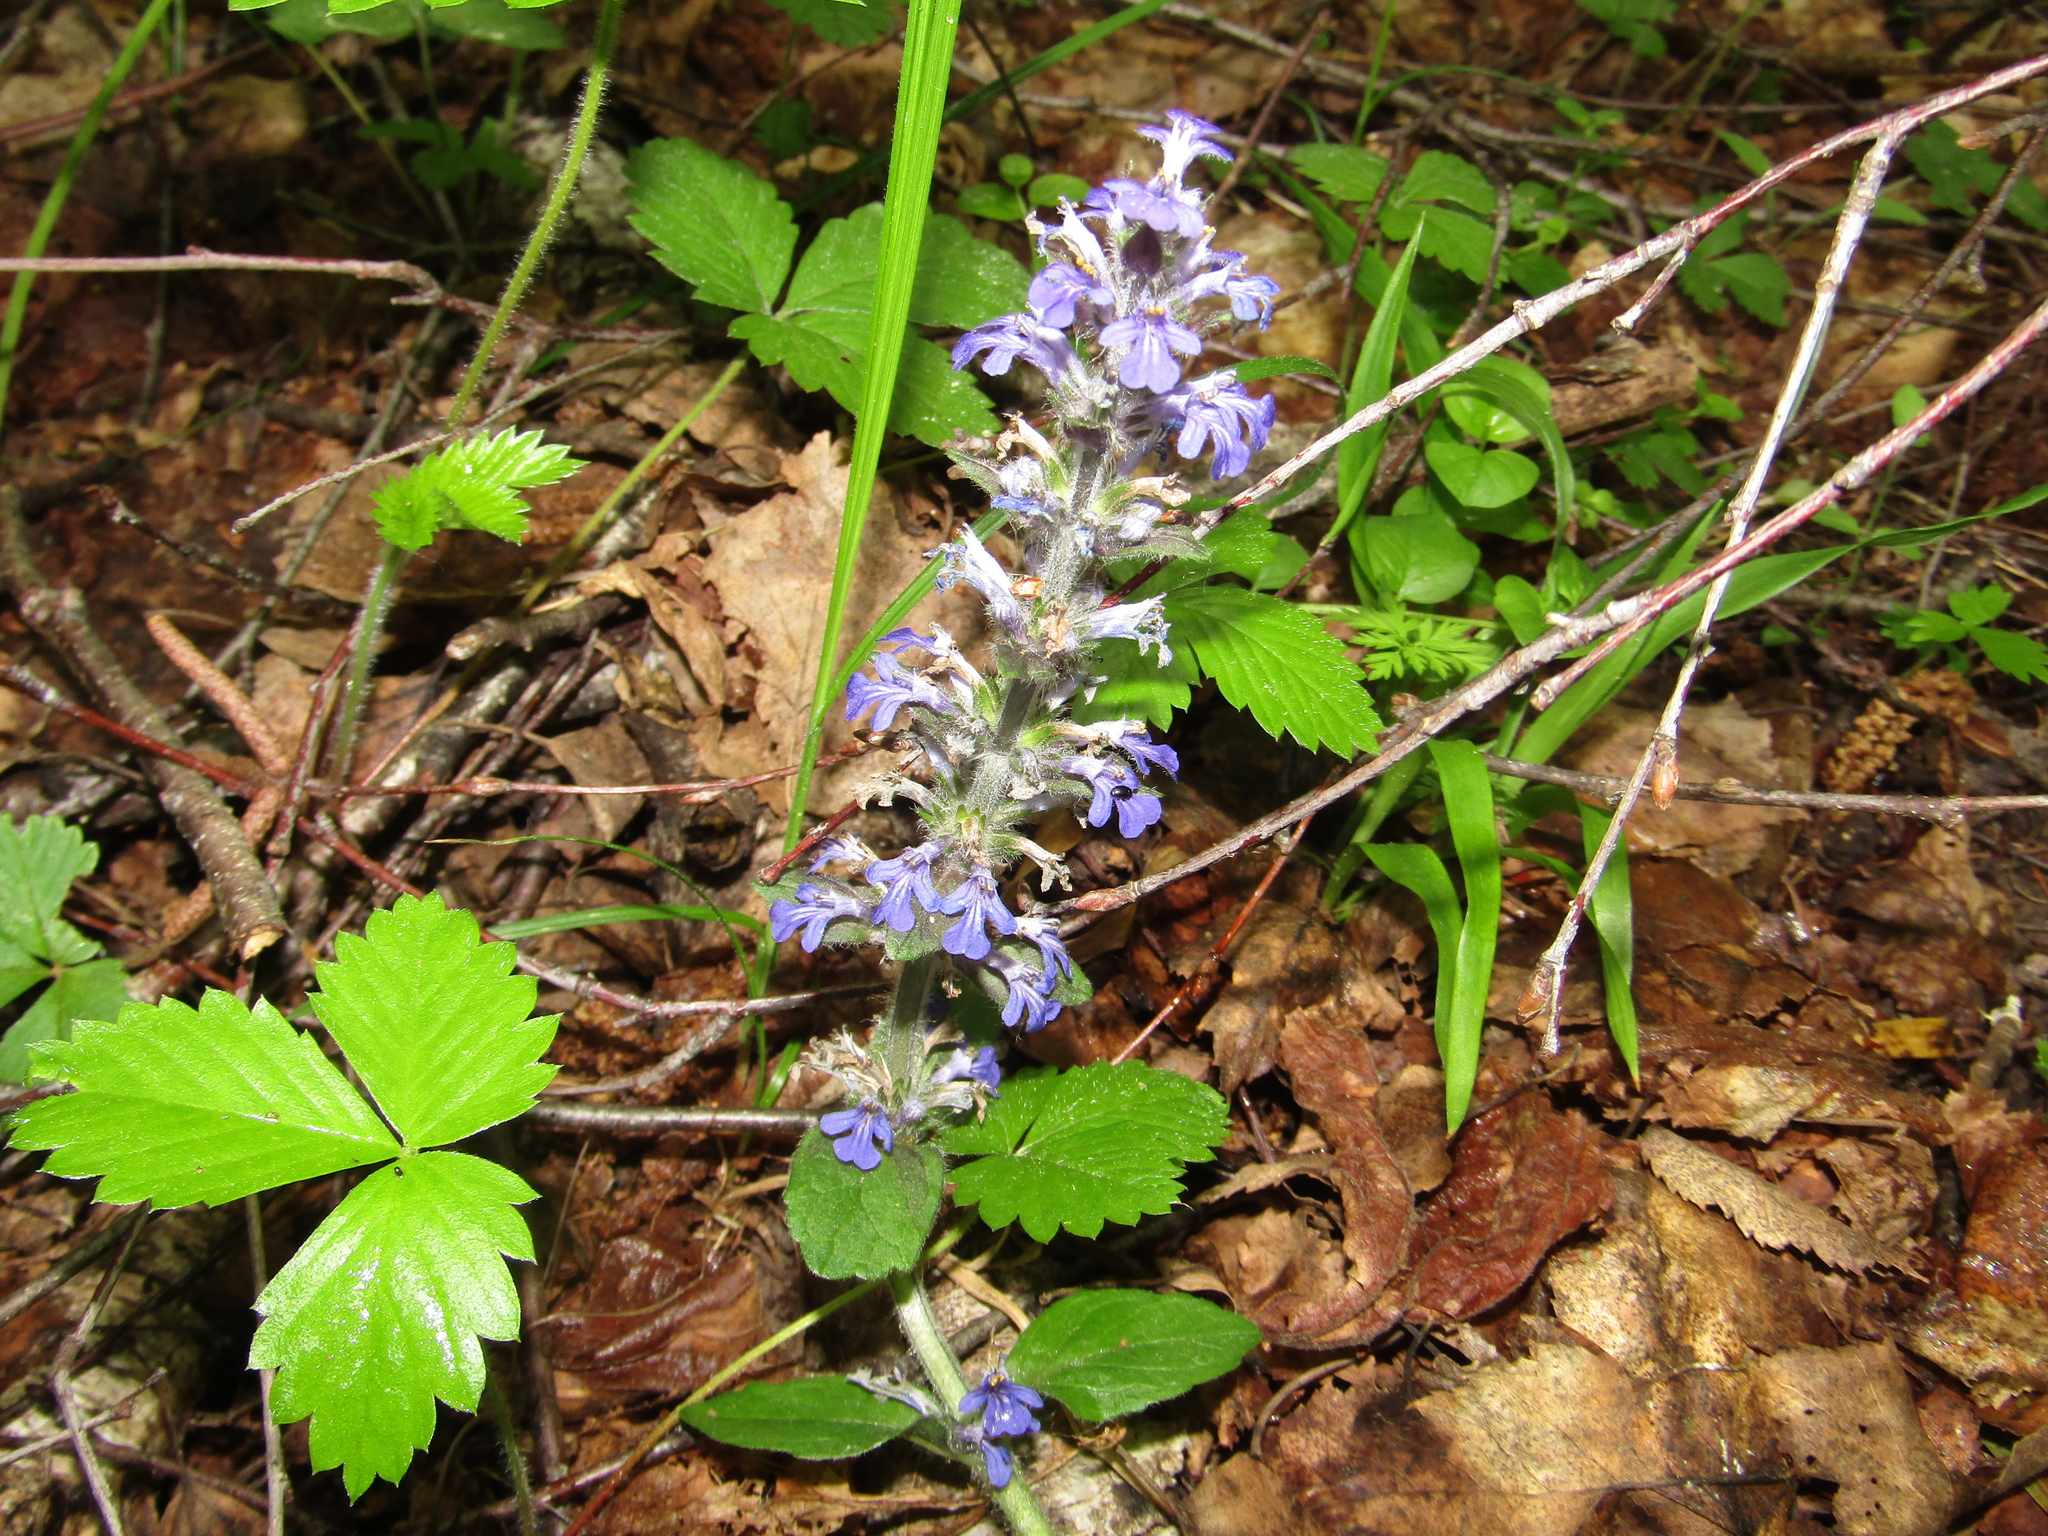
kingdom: Plantae
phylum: Tracheophyta
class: Magnoliopsida
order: Lamiales
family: Lamiaceae
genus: Ajuga
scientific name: Ajuga reptans
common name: Bugle
